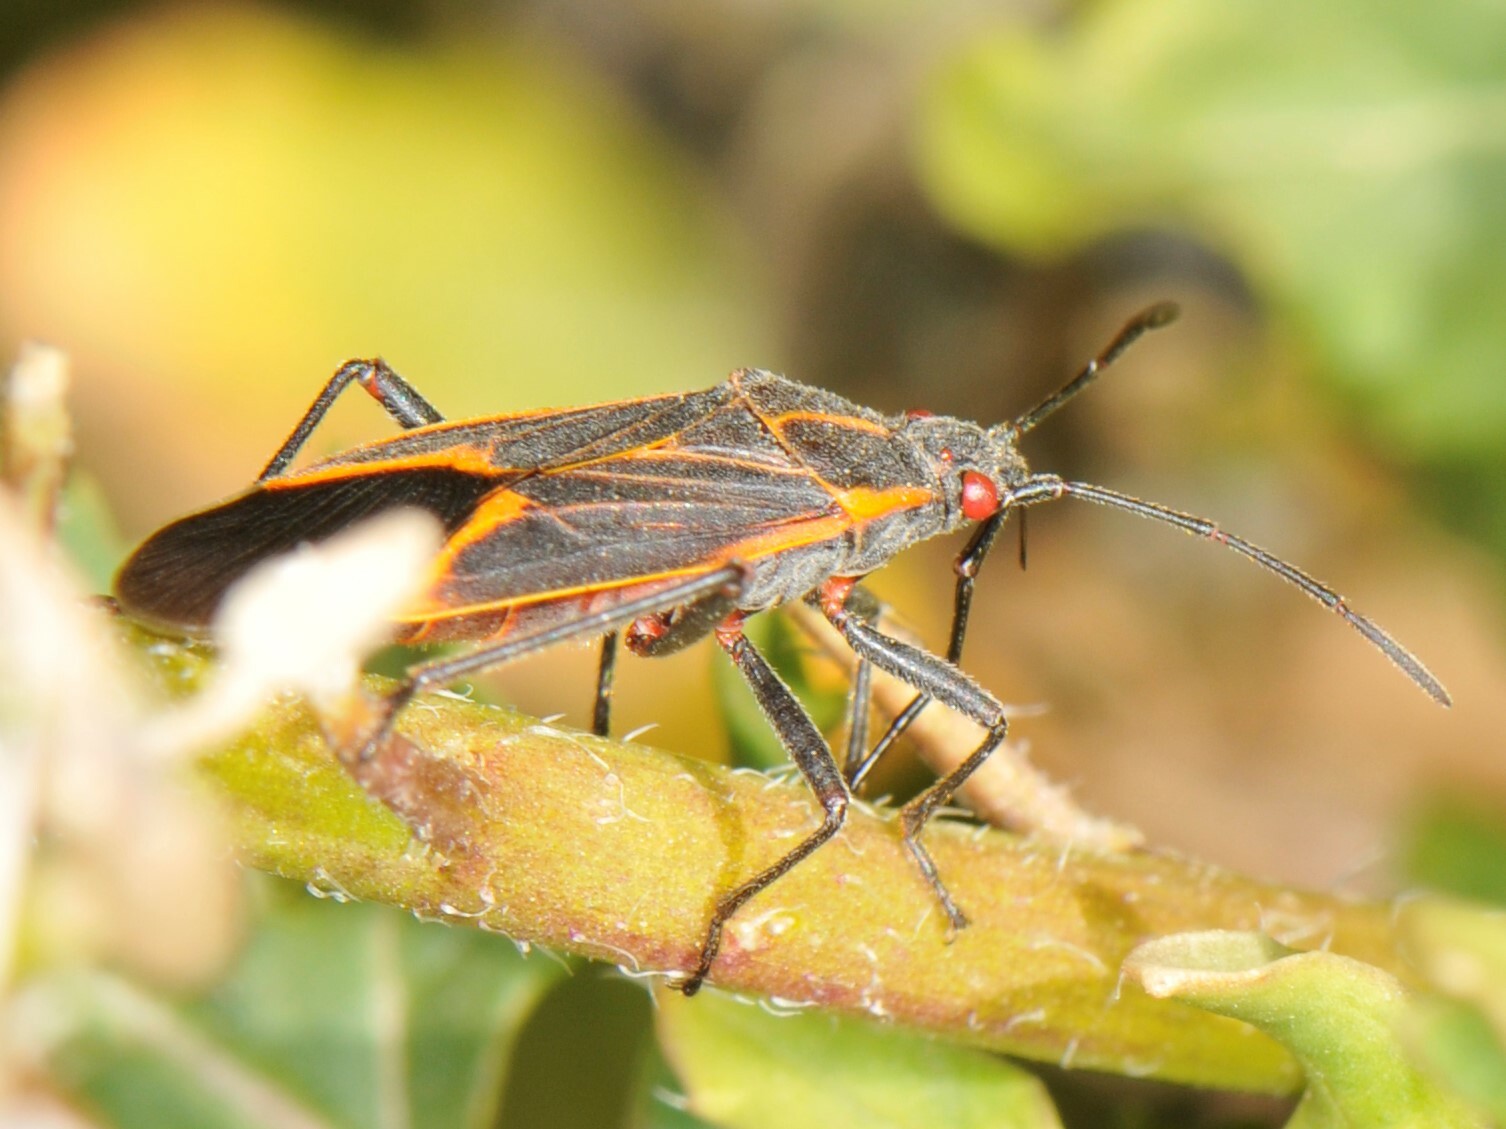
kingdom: Animalia
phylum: Arthropoda
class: Insecta
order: Hemiptera
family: Rhopalidae
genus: Boisea
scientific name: Boisea trivittata
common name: Boxelder bug
